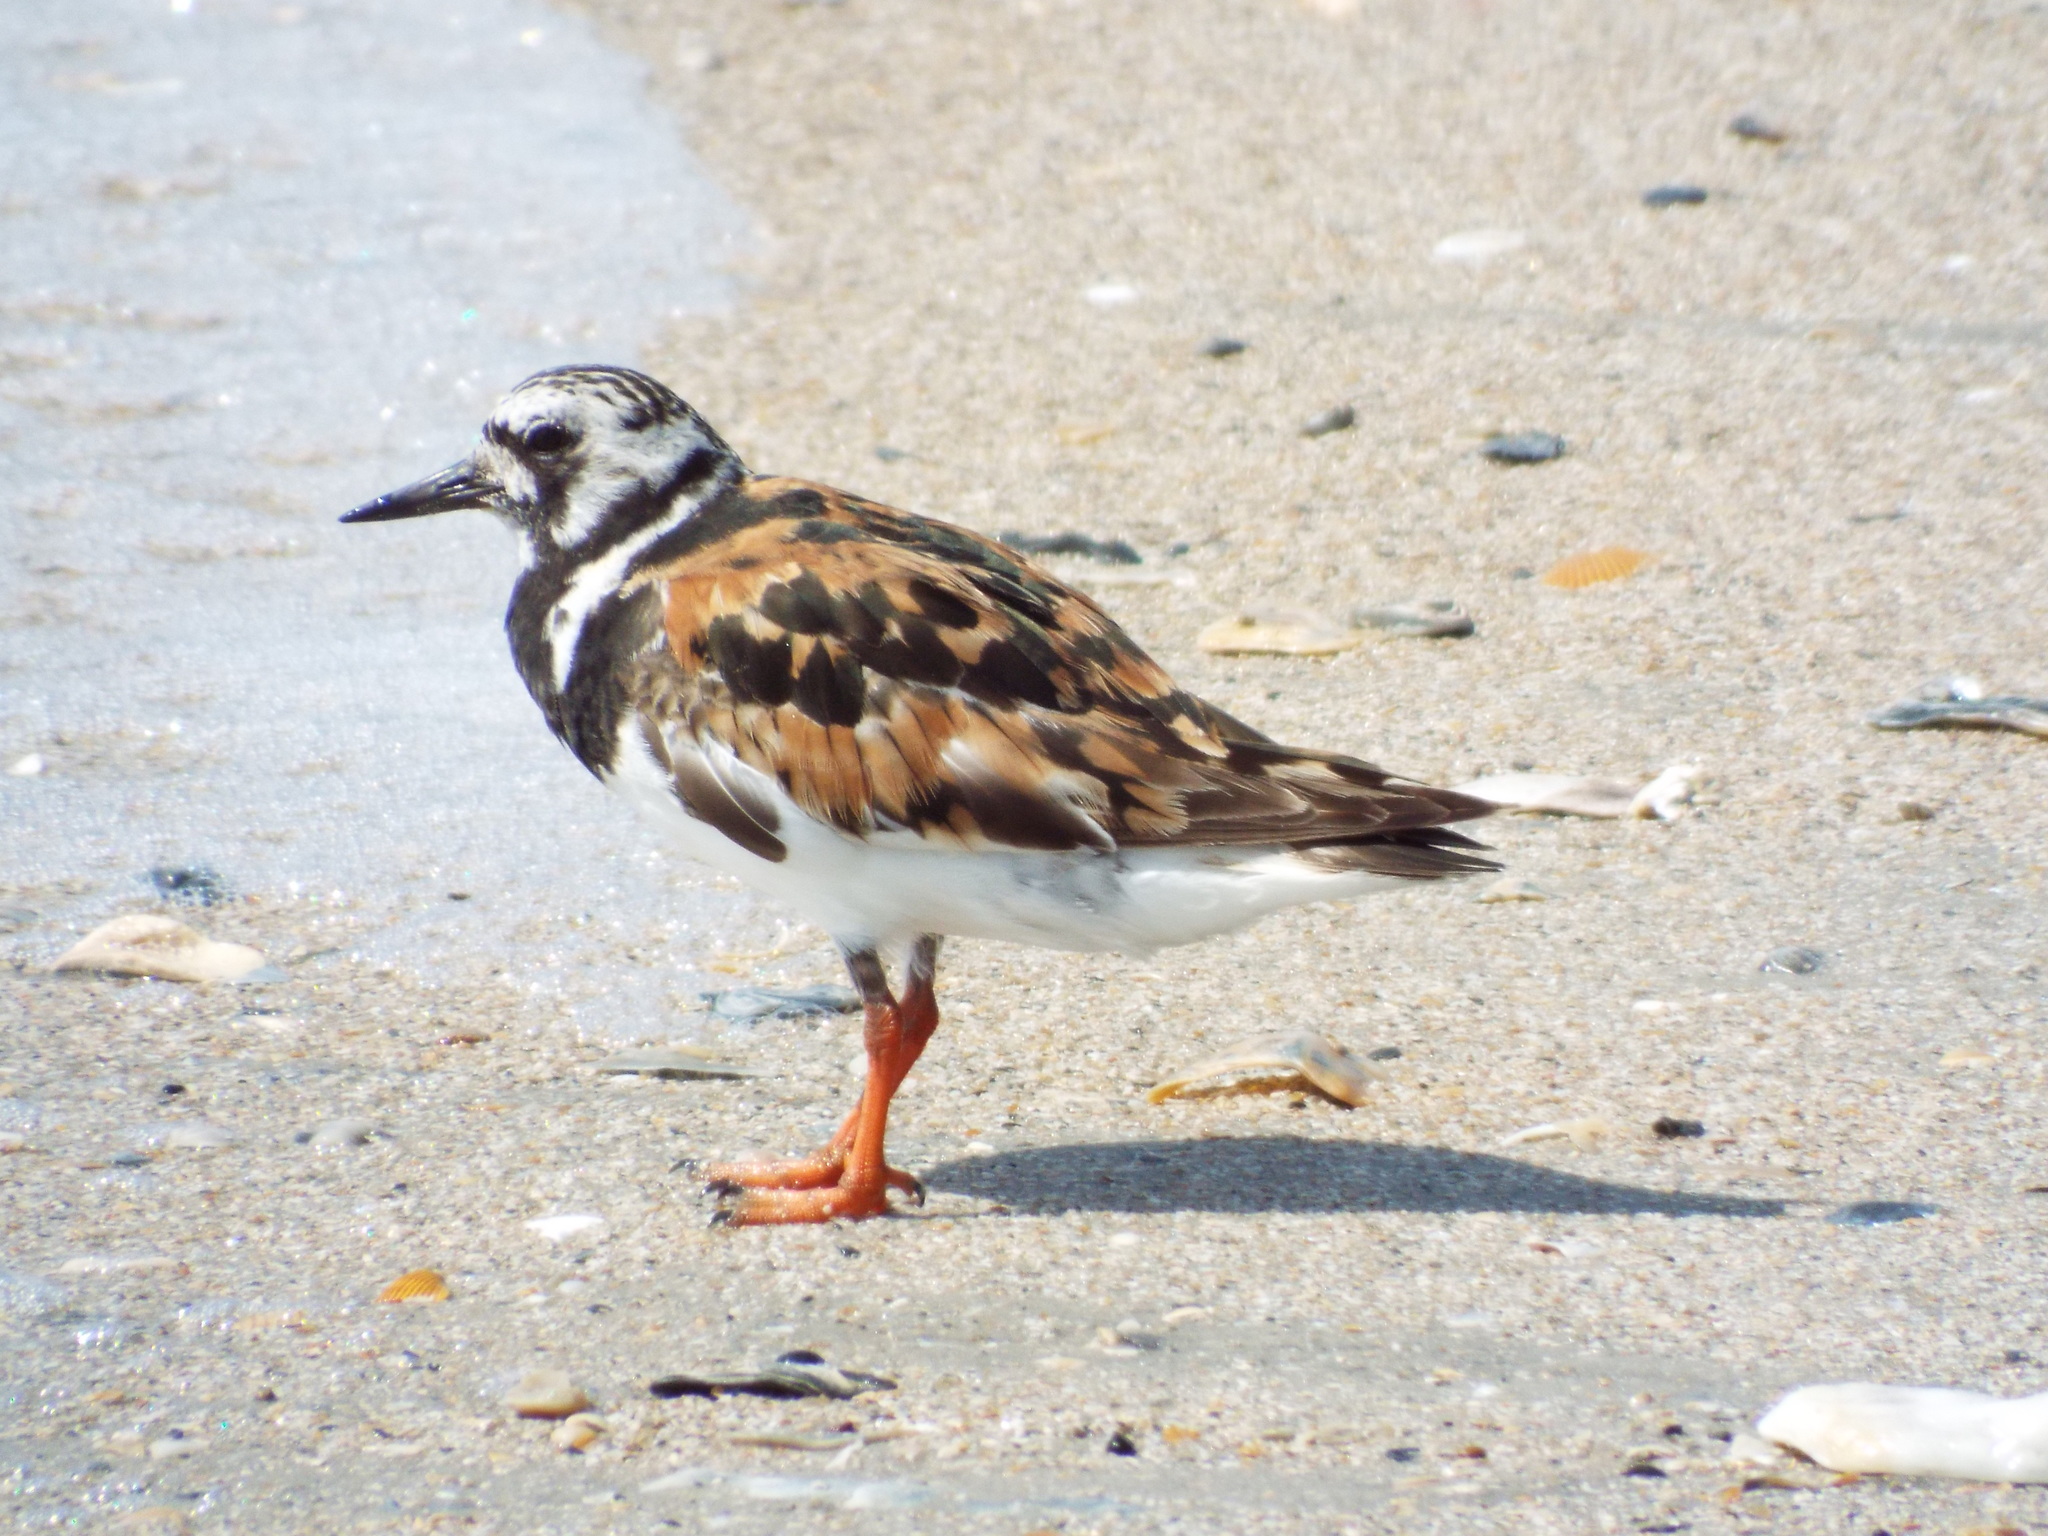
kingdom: Animalia
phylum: Chordata
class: Aves
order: Charadriiformes
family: Scolopacidae
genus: Arenaria
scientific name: Arenaria interpres
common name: Ruddy turnstone
